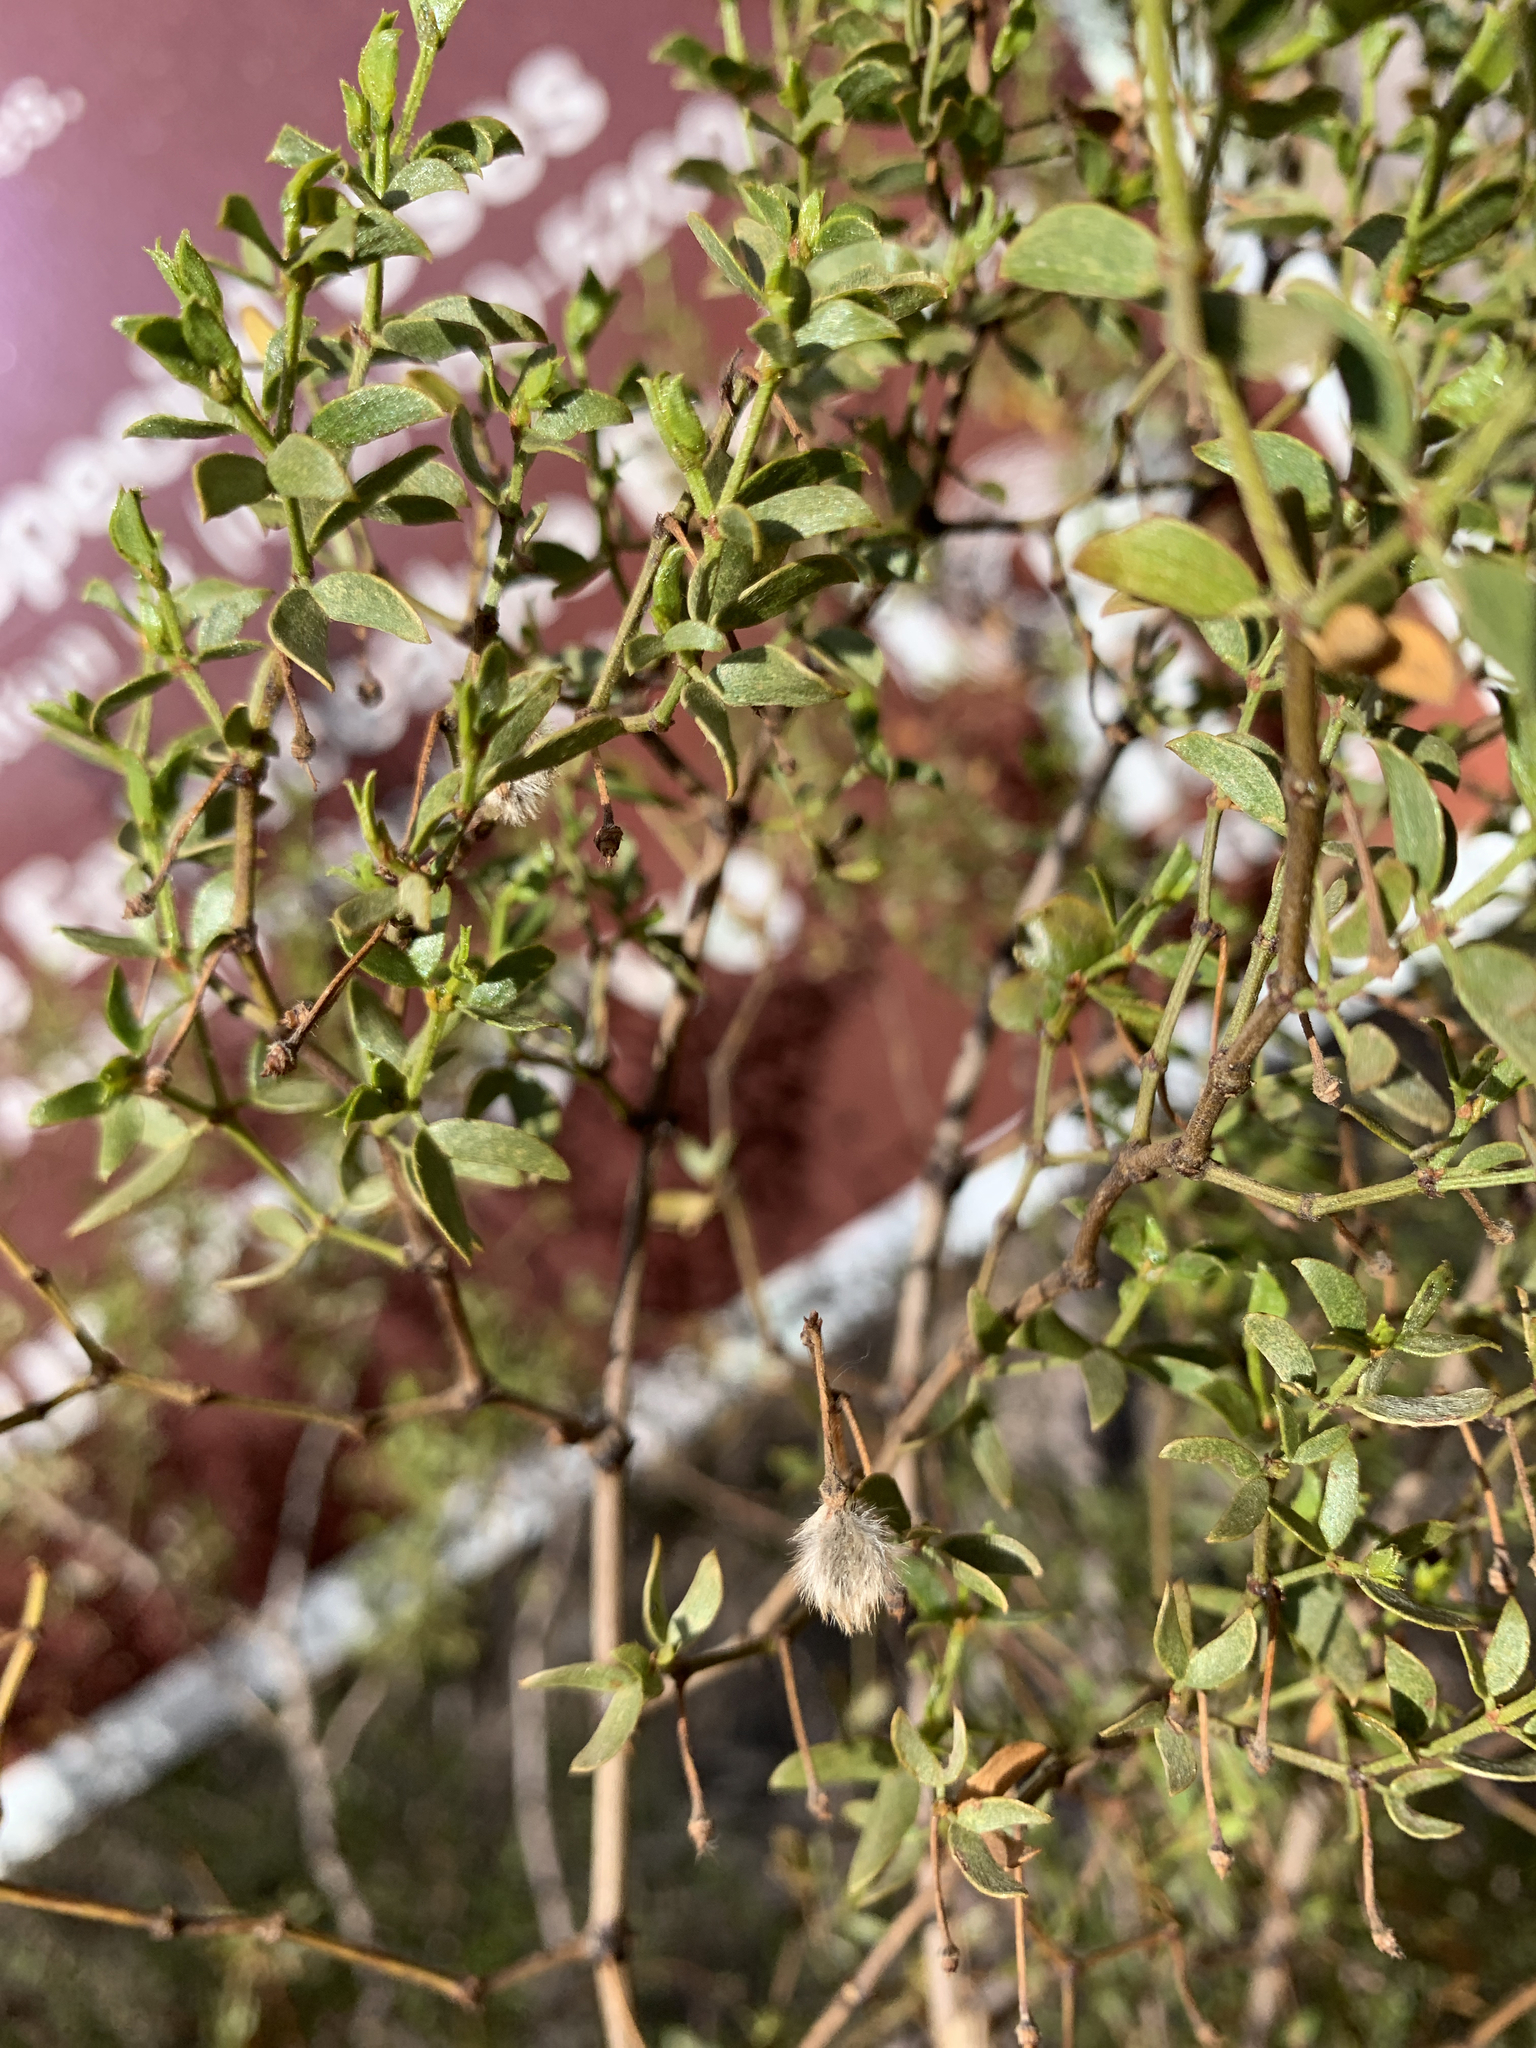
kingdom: Plantae
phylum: Tracheophyta
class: Magnoliopsida
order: Zygophyllales
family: Zygophyllaceae
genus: Larrea
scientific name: Larrea tridentata
